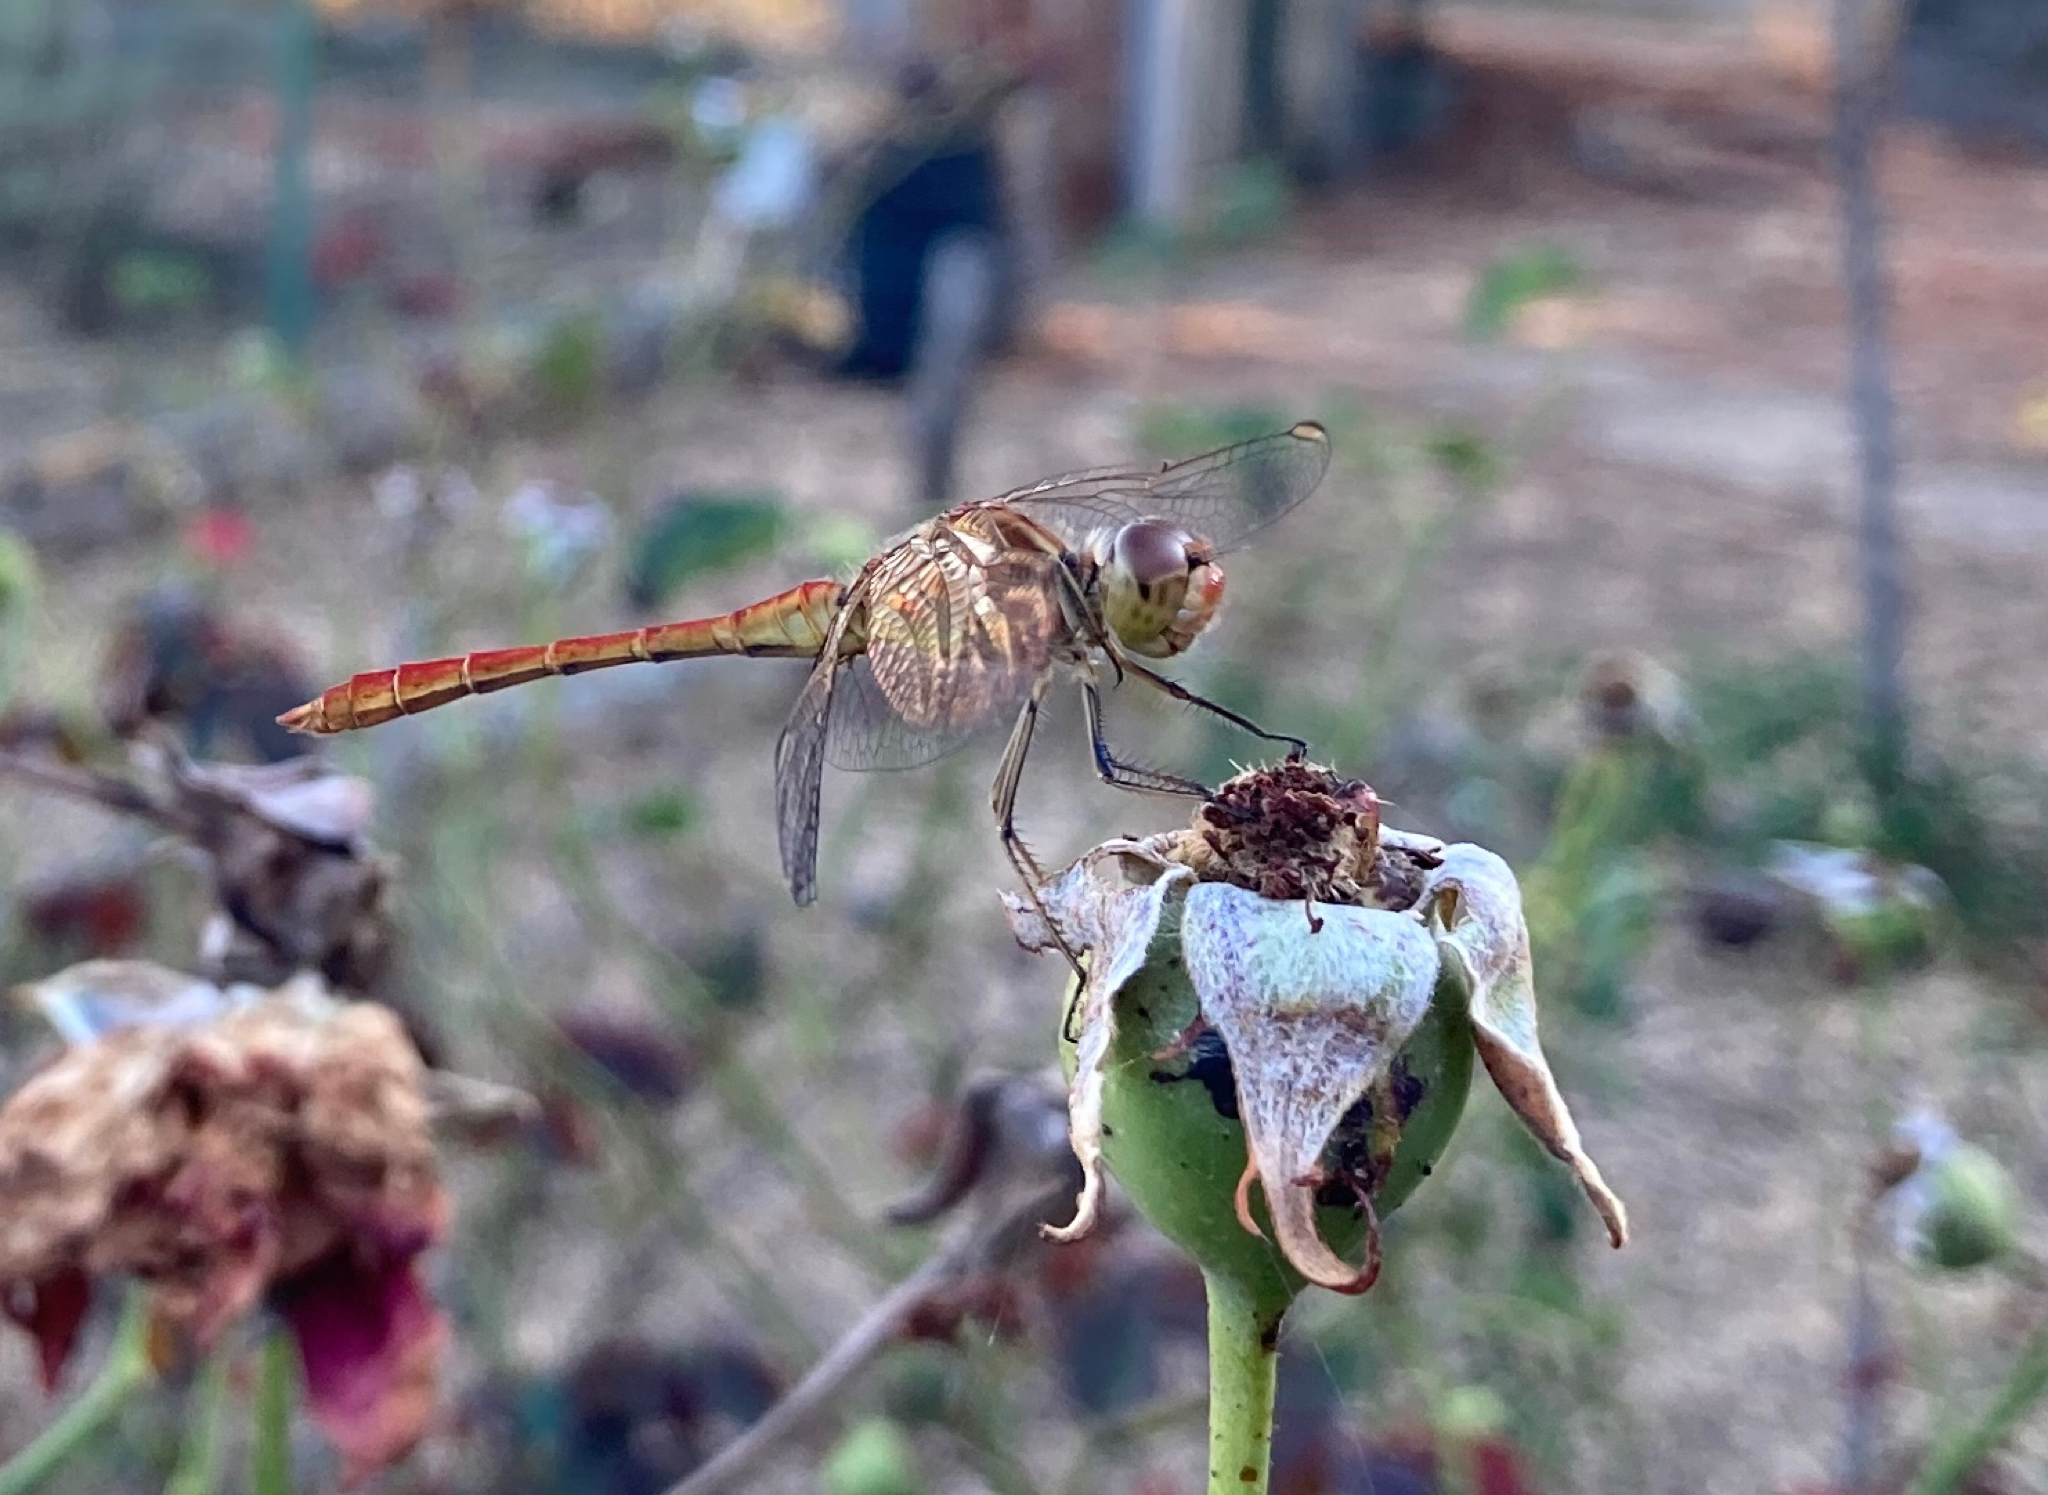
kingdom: Animalia
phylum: Arthropoda
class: Insecta
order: Odonata
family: Libellulidae
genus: Sympetrum
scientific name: Sympetrum meridionale
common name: Southern darter
